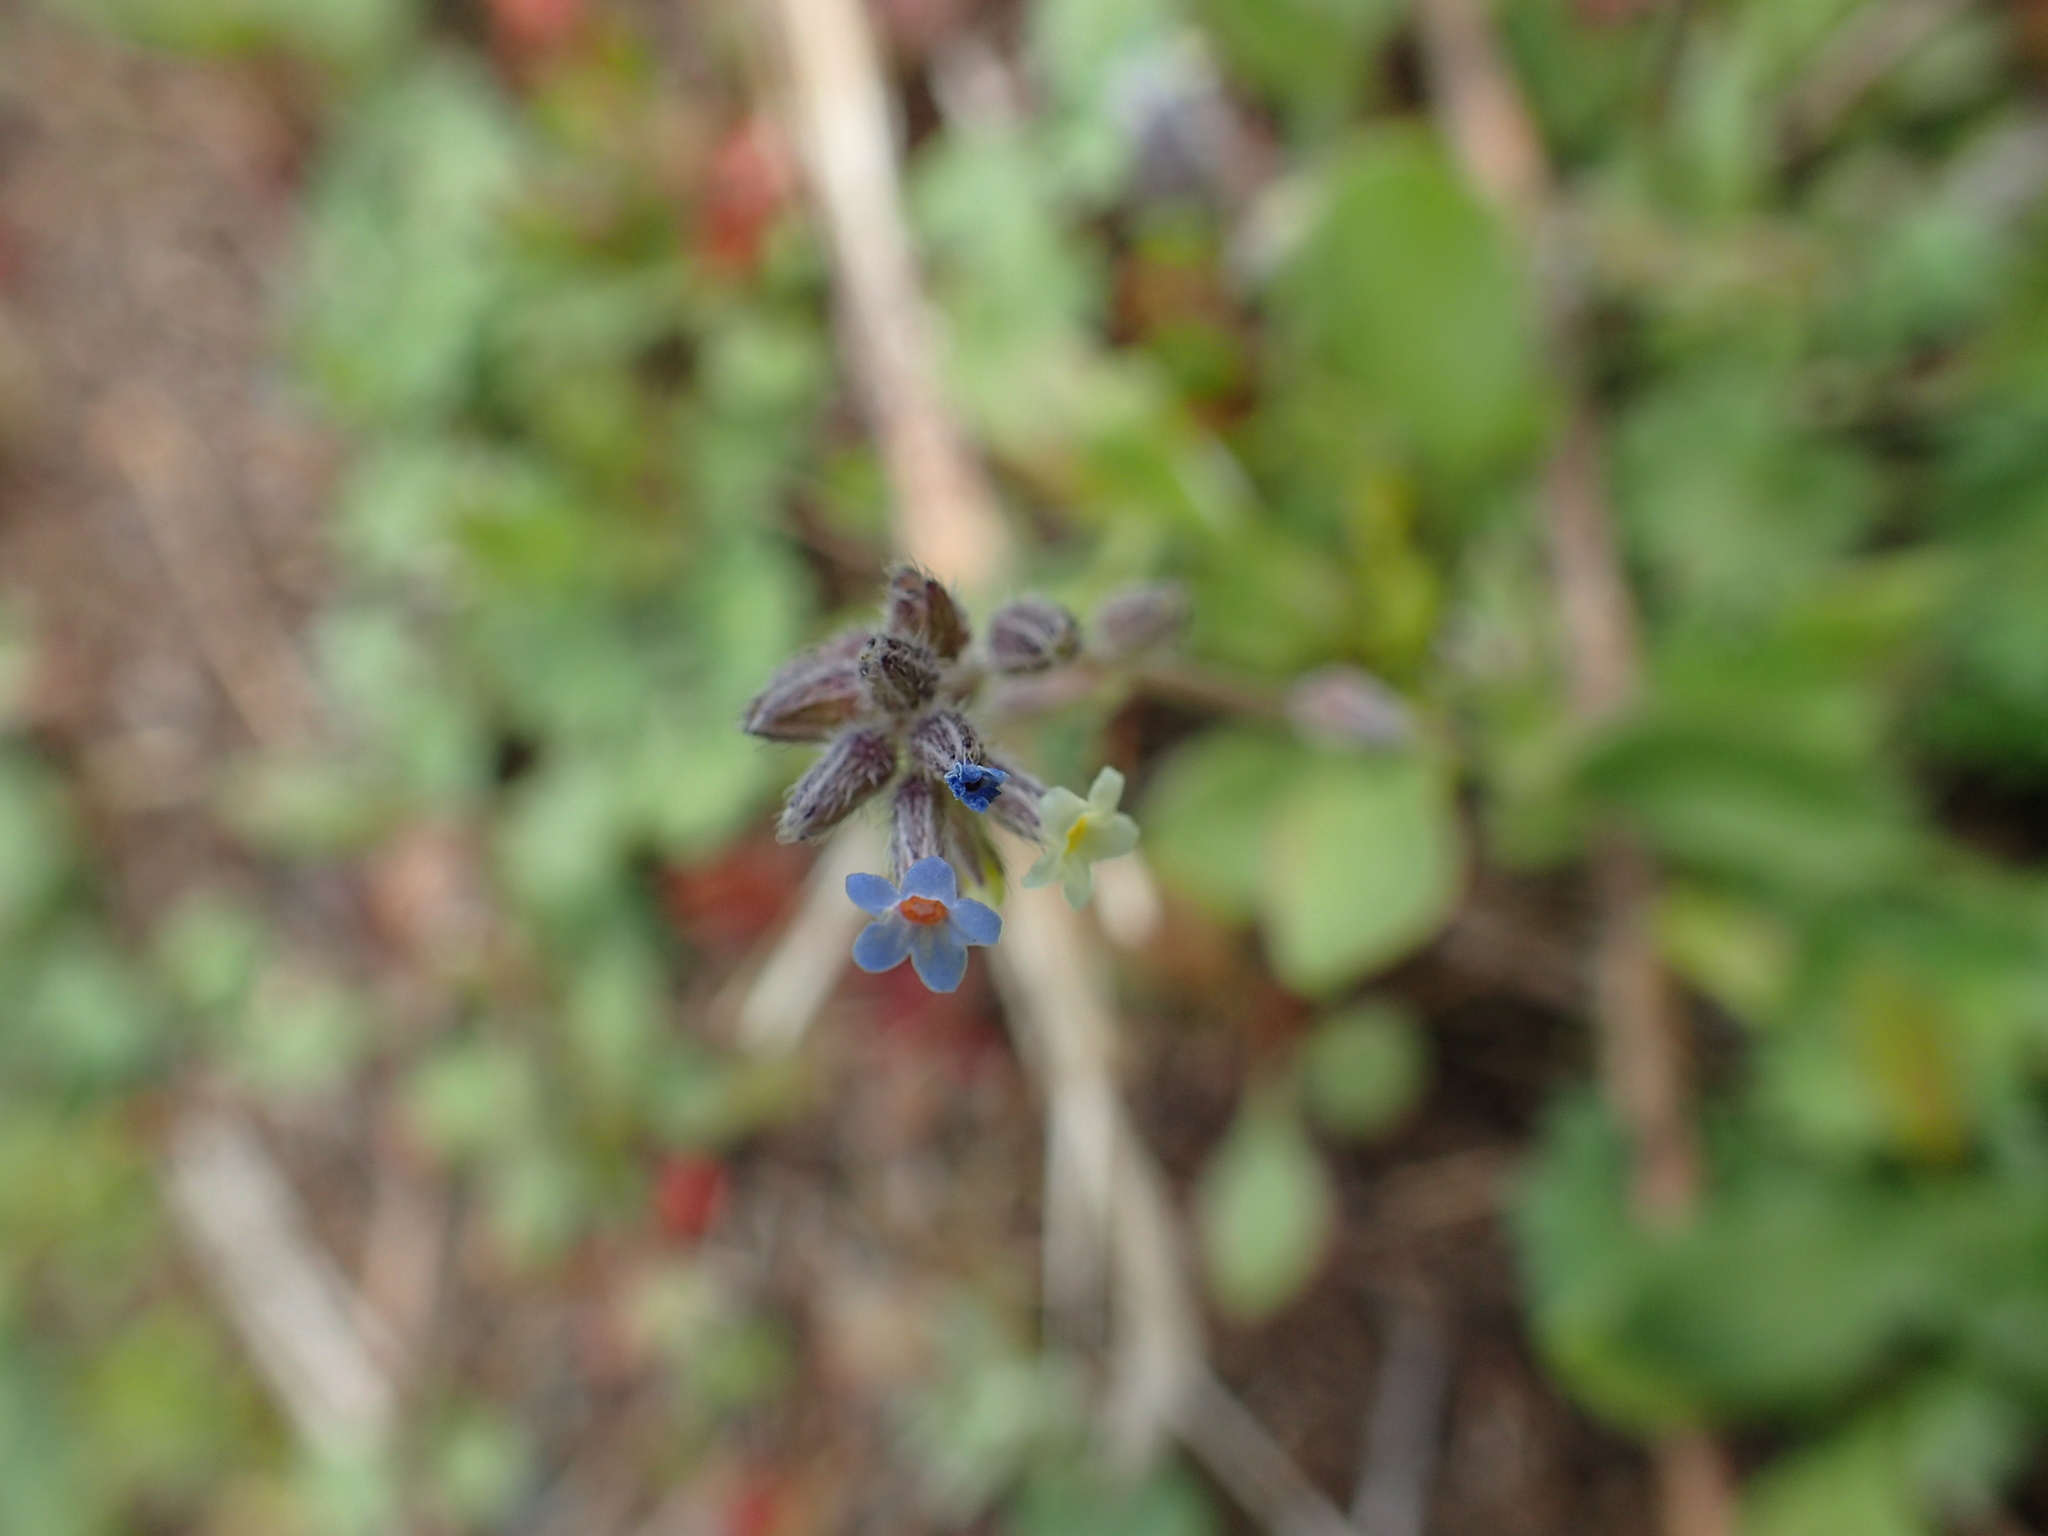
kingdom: Plantae
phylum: Tracheophyta
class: Magnoliopsida
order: Boraginales
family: Boraginaceae
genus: Myosotis
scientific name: Myosotis discolor
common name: Changing forget-me-not
